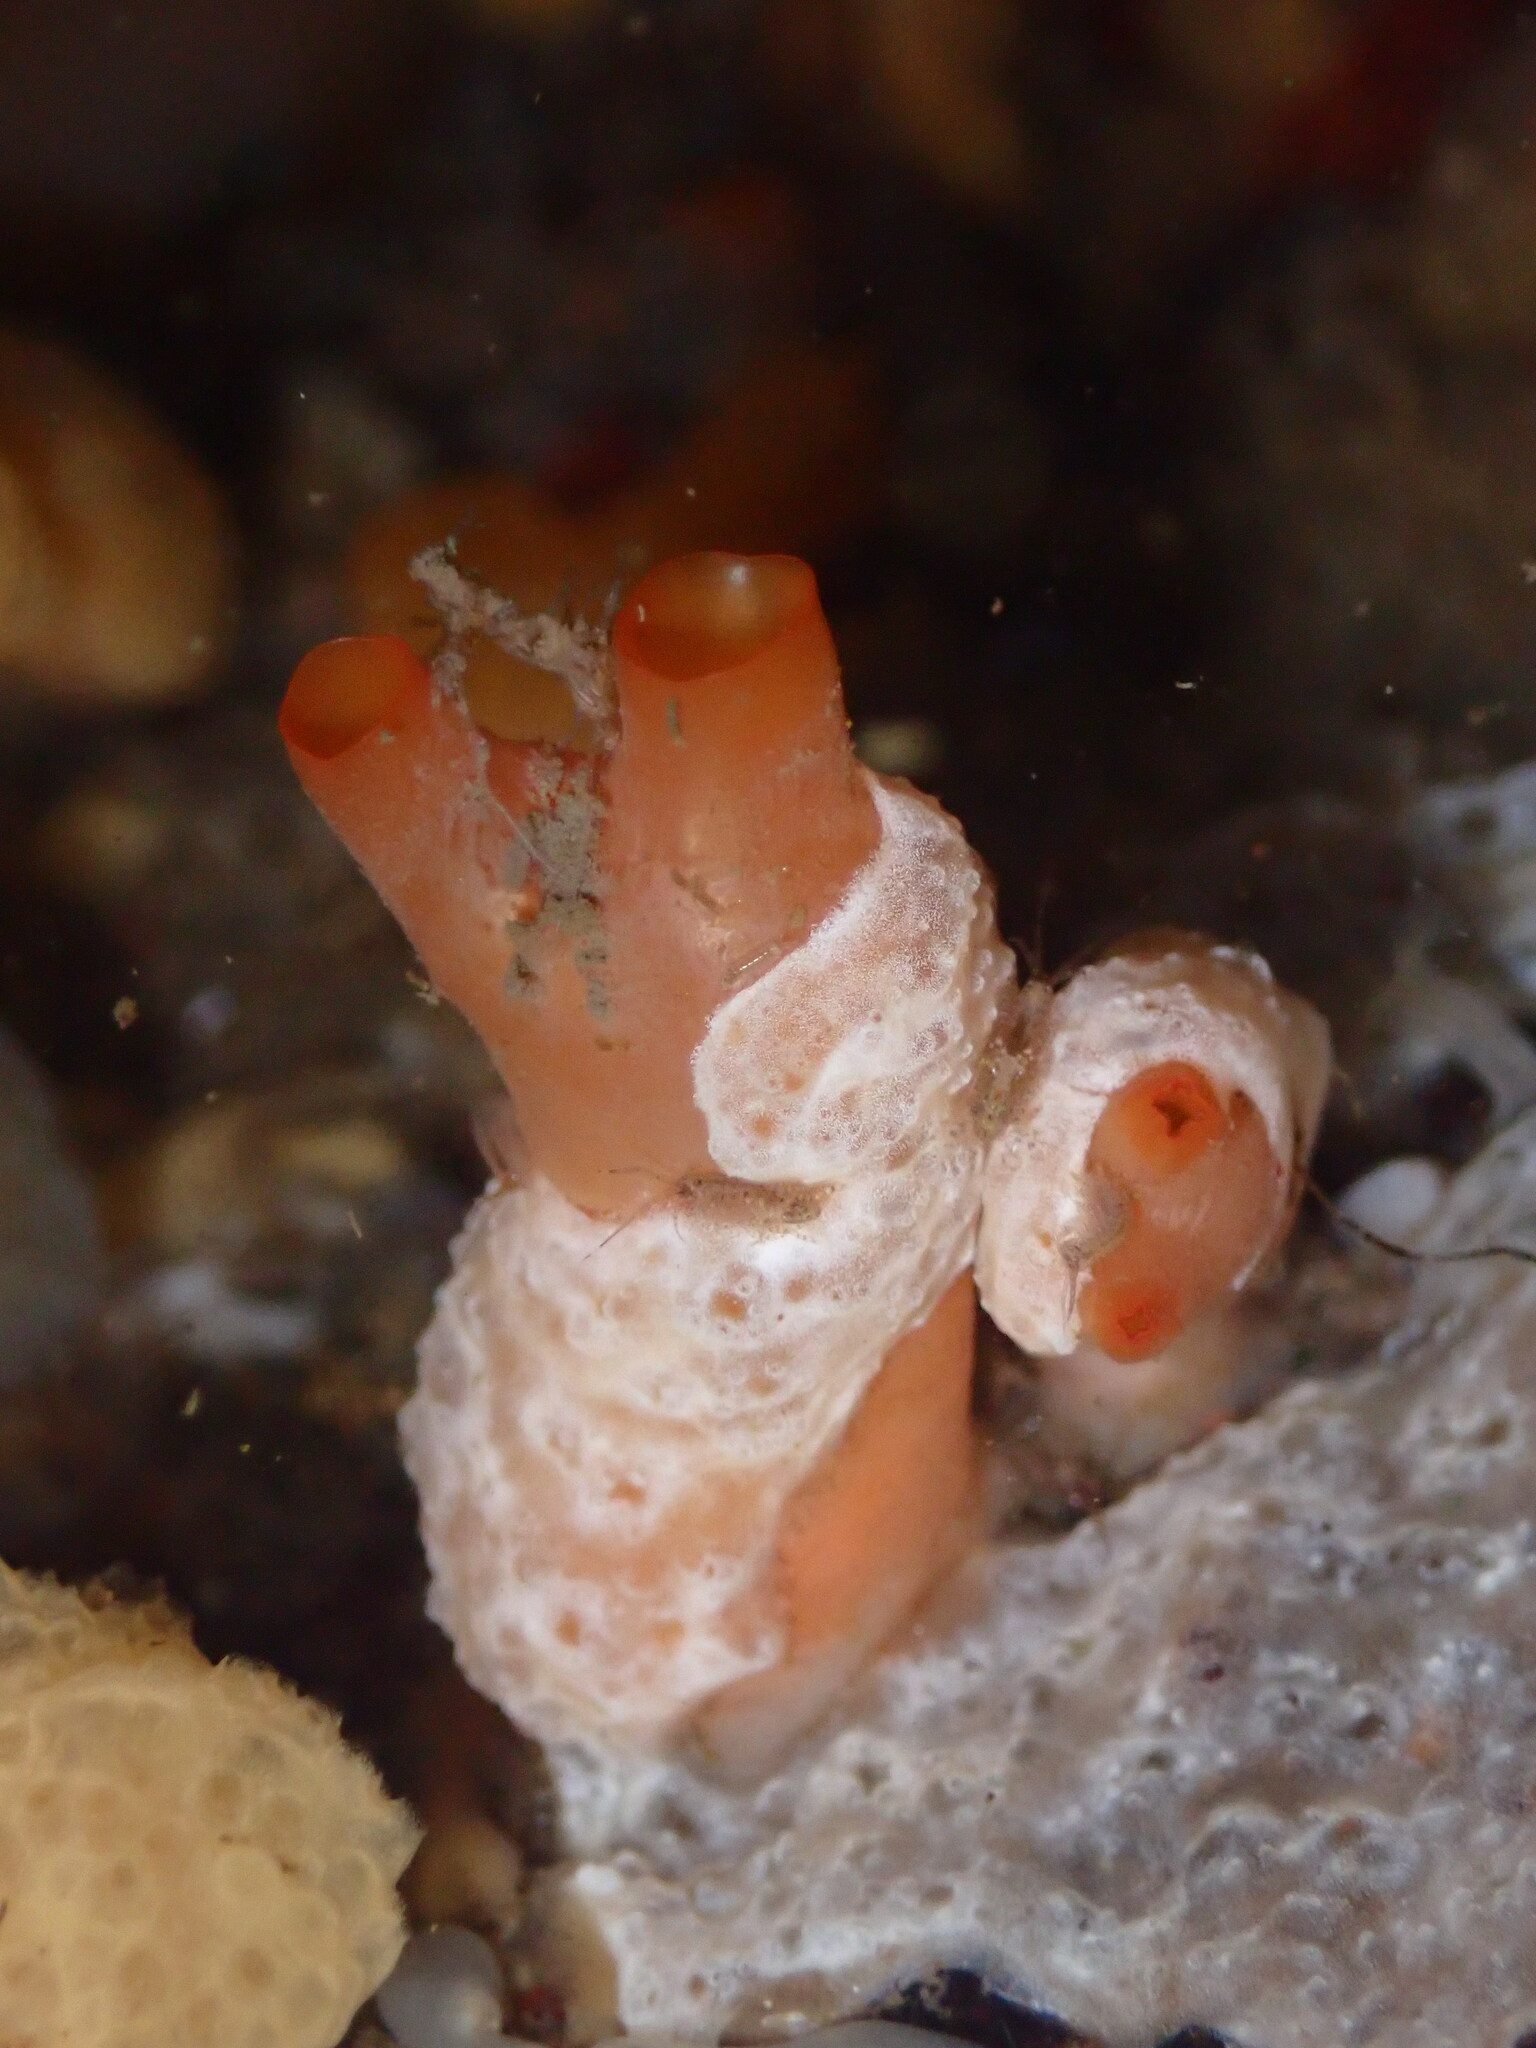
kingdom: Animalia
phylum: Chordata
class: Ascidiacea
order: Stolidobranchia
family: Styelidae
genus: Styela
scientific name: Styela gibbsii
